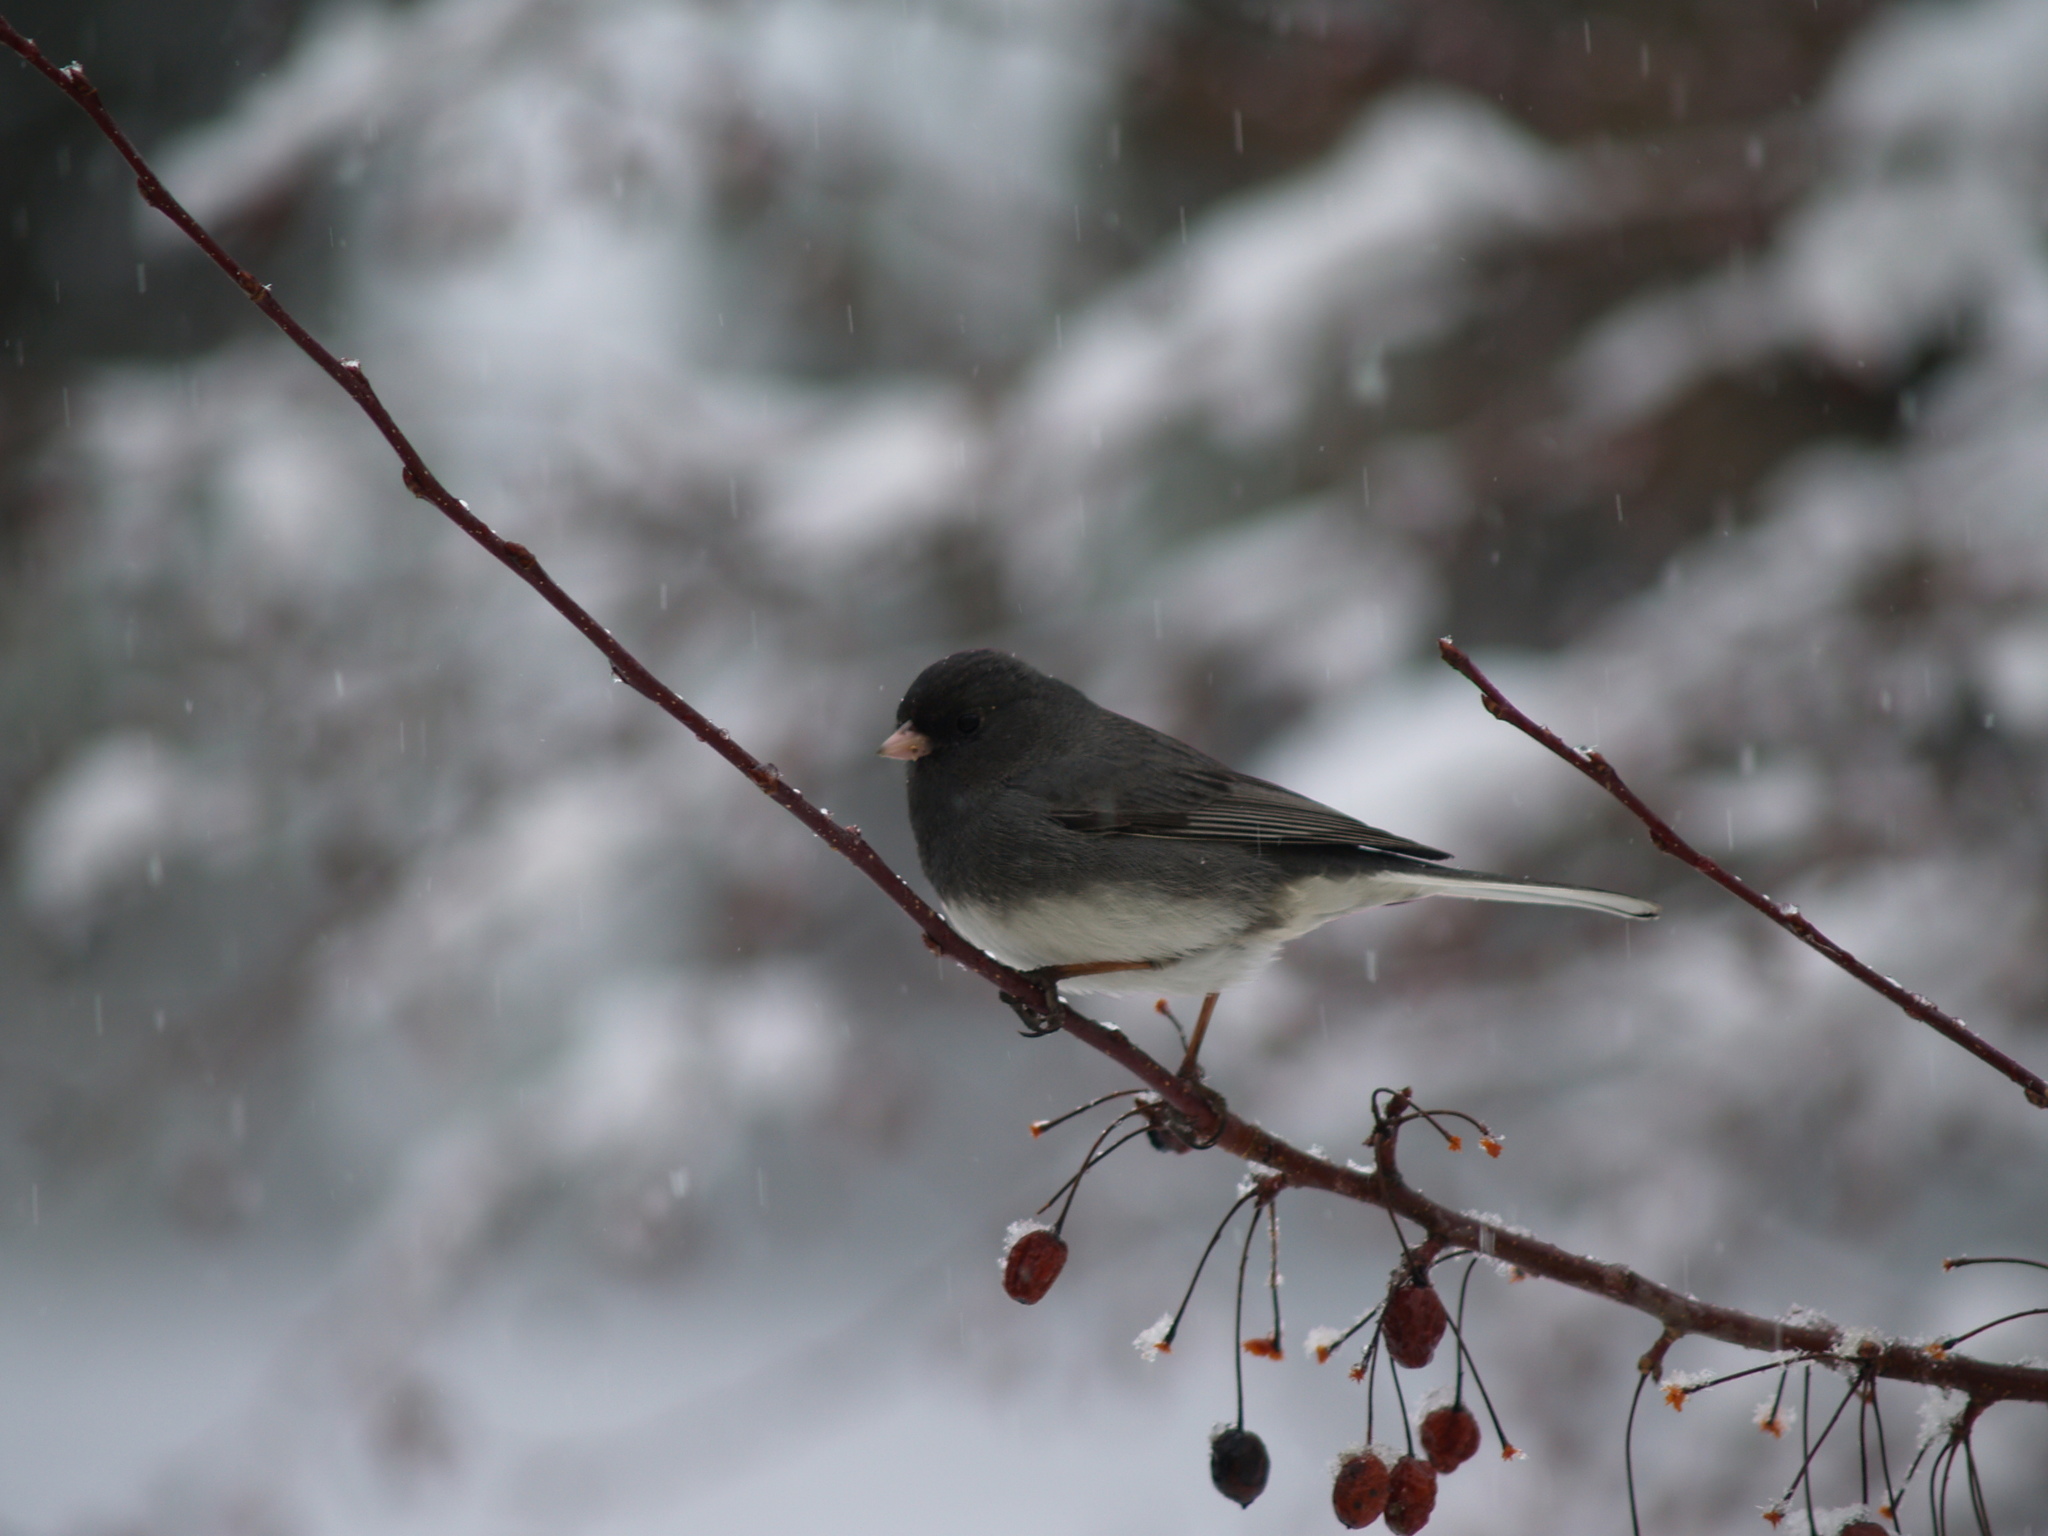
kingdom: Animalia
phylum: Chordata
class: Aves
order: Passeriformes
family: Passerellidae
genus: Junco
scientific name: Junco hyemalis
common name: Dark-eyed junco
